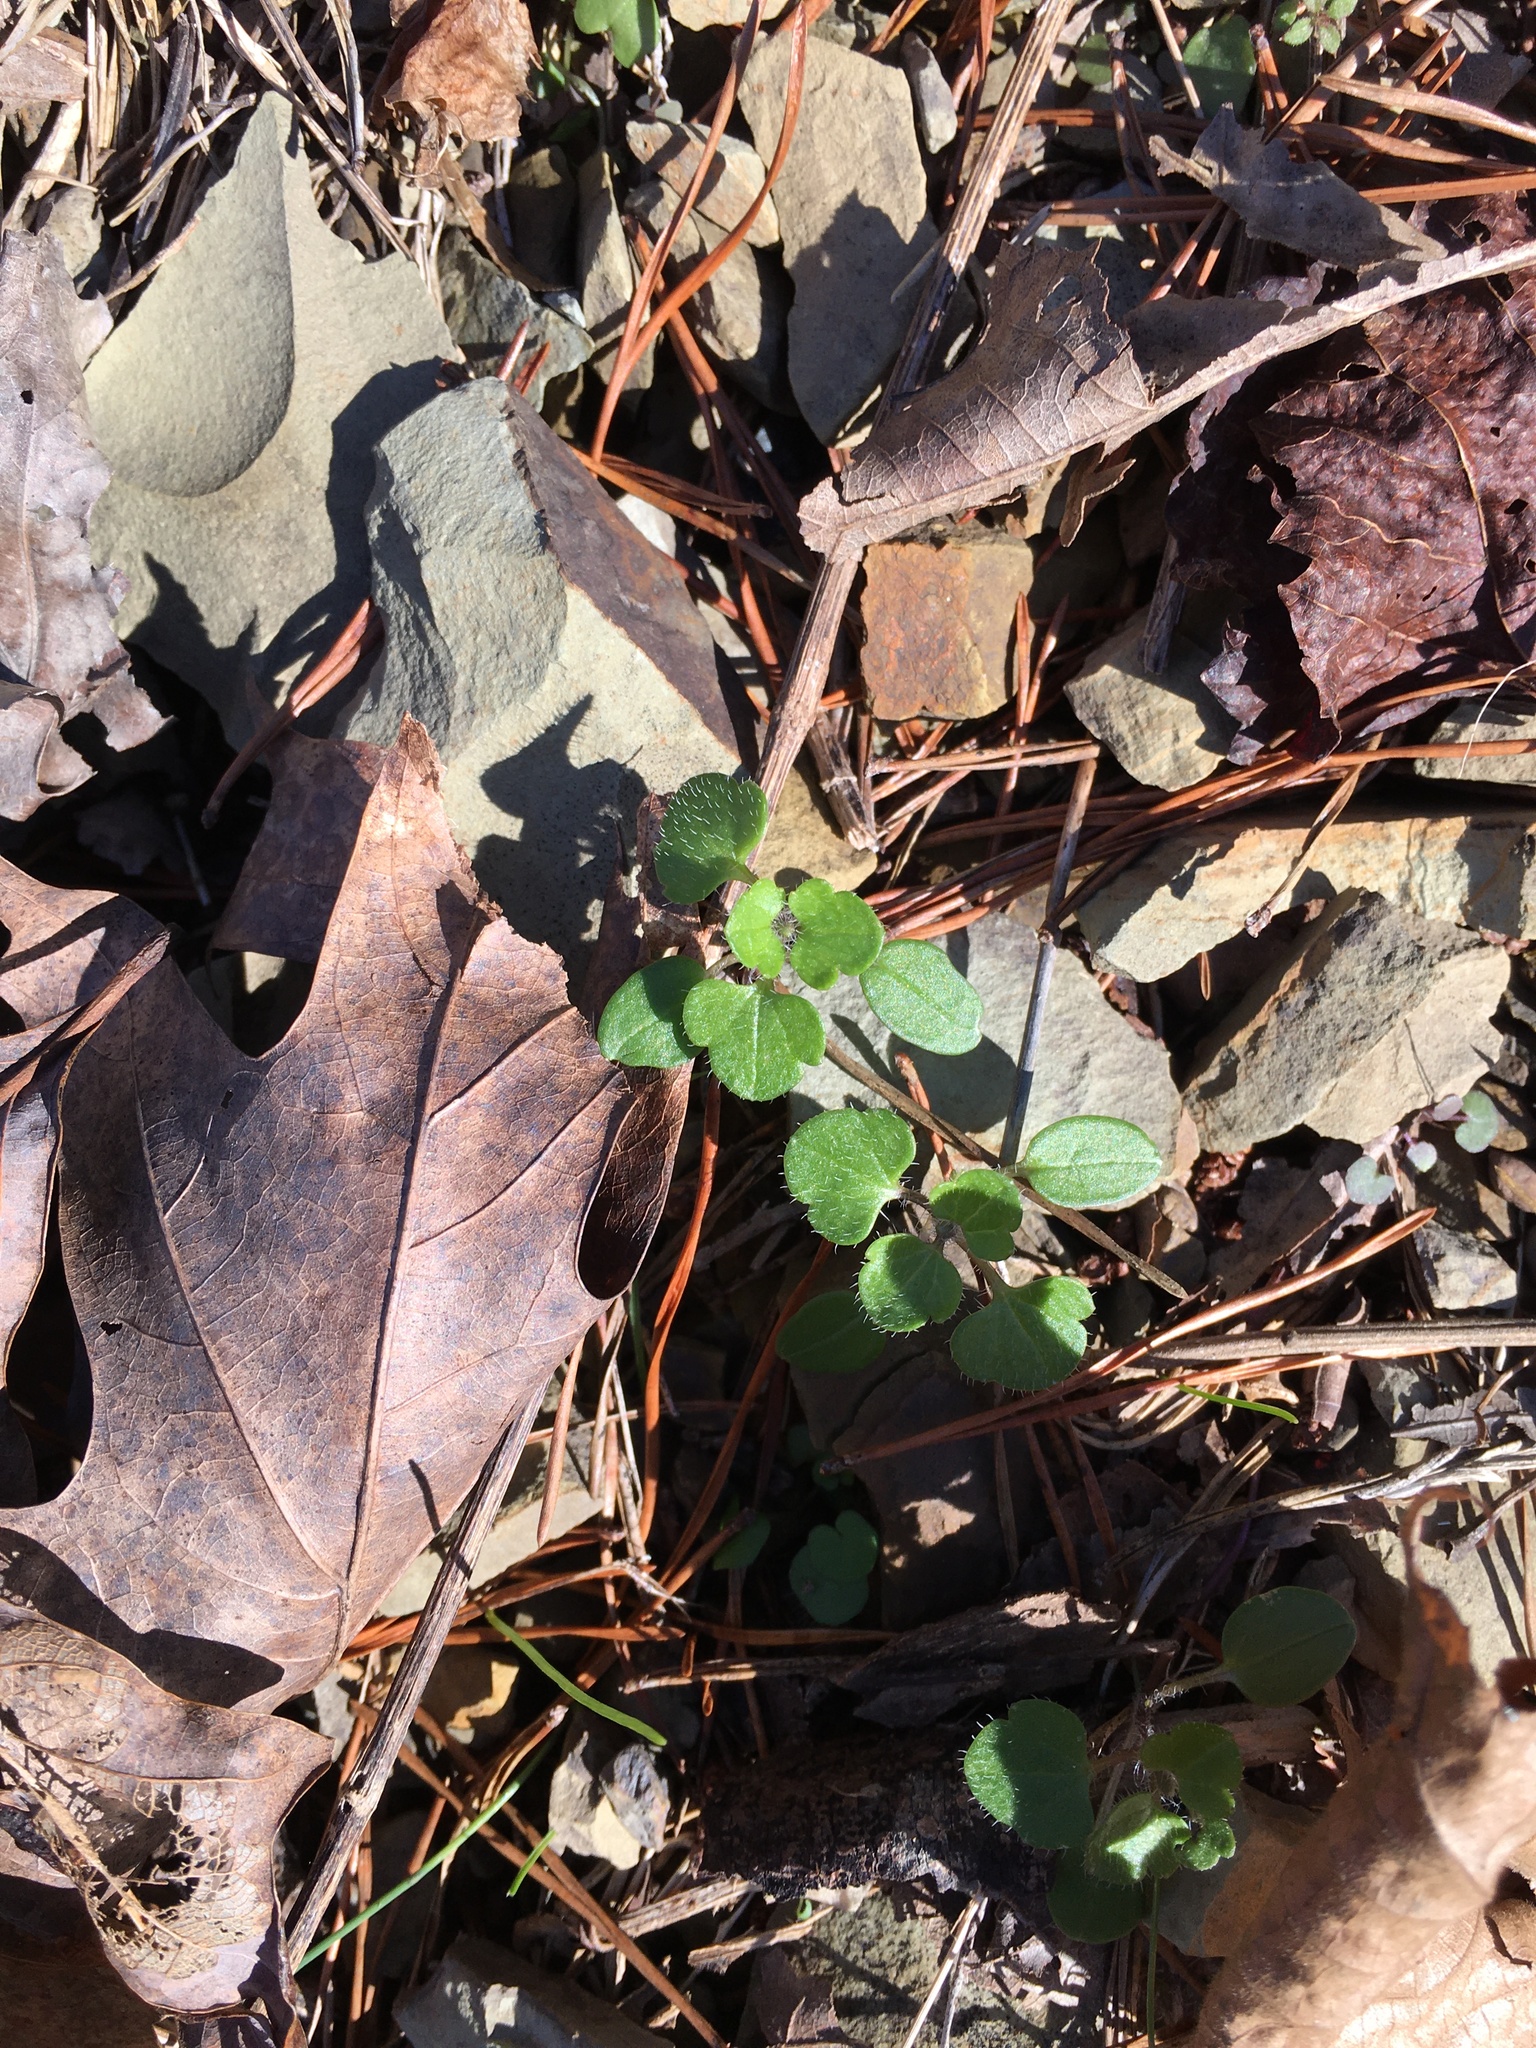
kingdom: Plantae
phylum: Tracheophyta
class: Magnoliopsida
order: Lamiales
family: Plantaginaceae
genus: Veronica
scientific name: Veronica hederifolia
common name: Ivy-leaved speedwell
